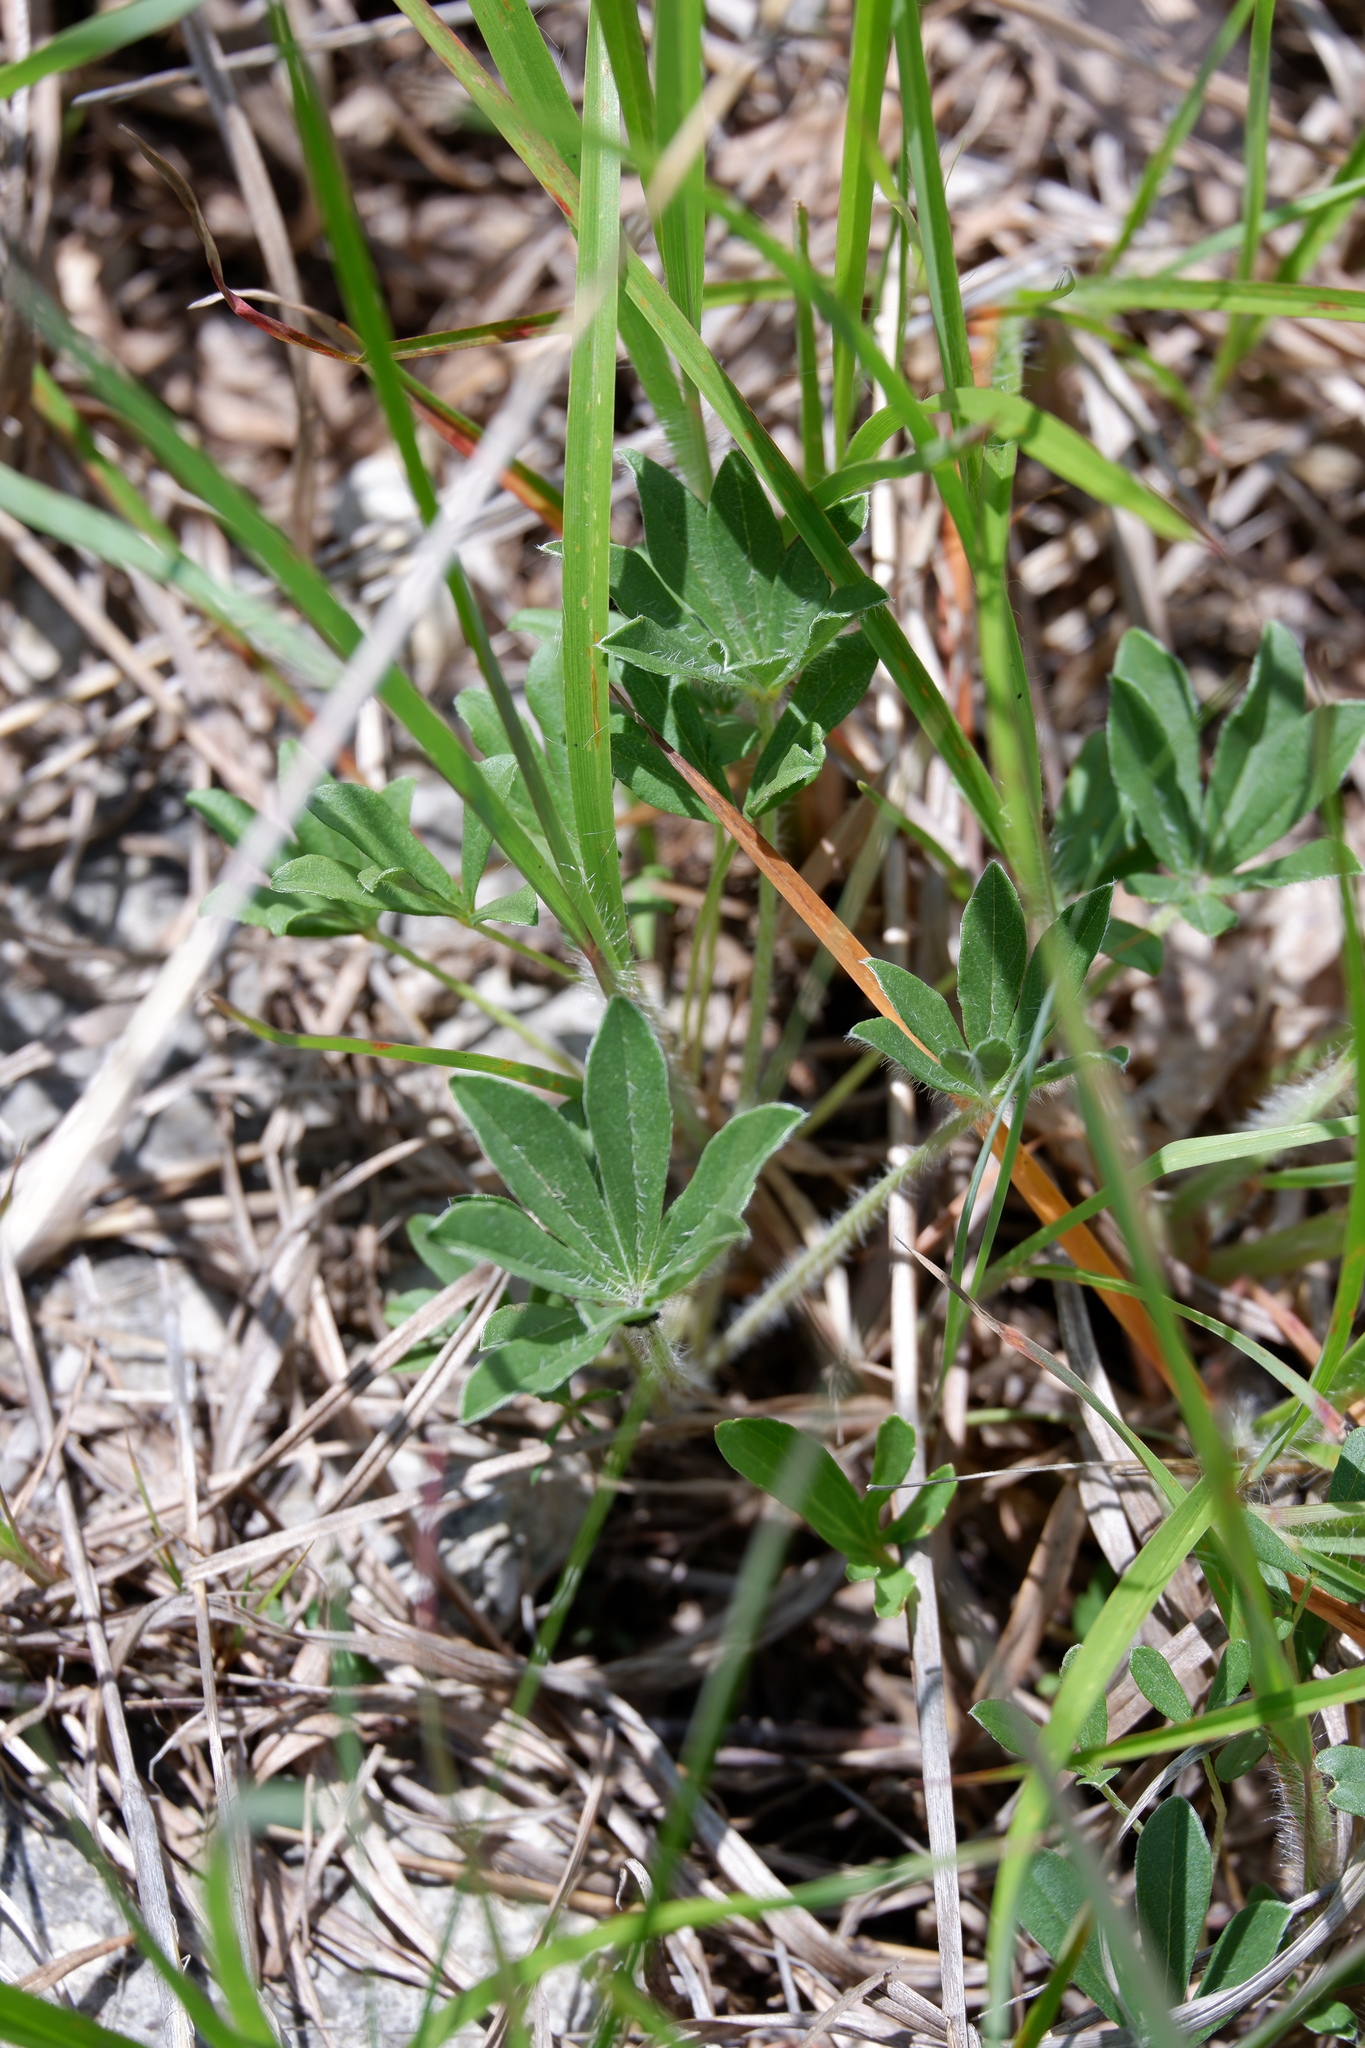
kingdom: Plantae
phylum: Tracheophyta
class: Magnoliopsida
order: Fabales
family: Fabaceae
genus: Pediomelum
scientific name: Pediomelum subacaule
